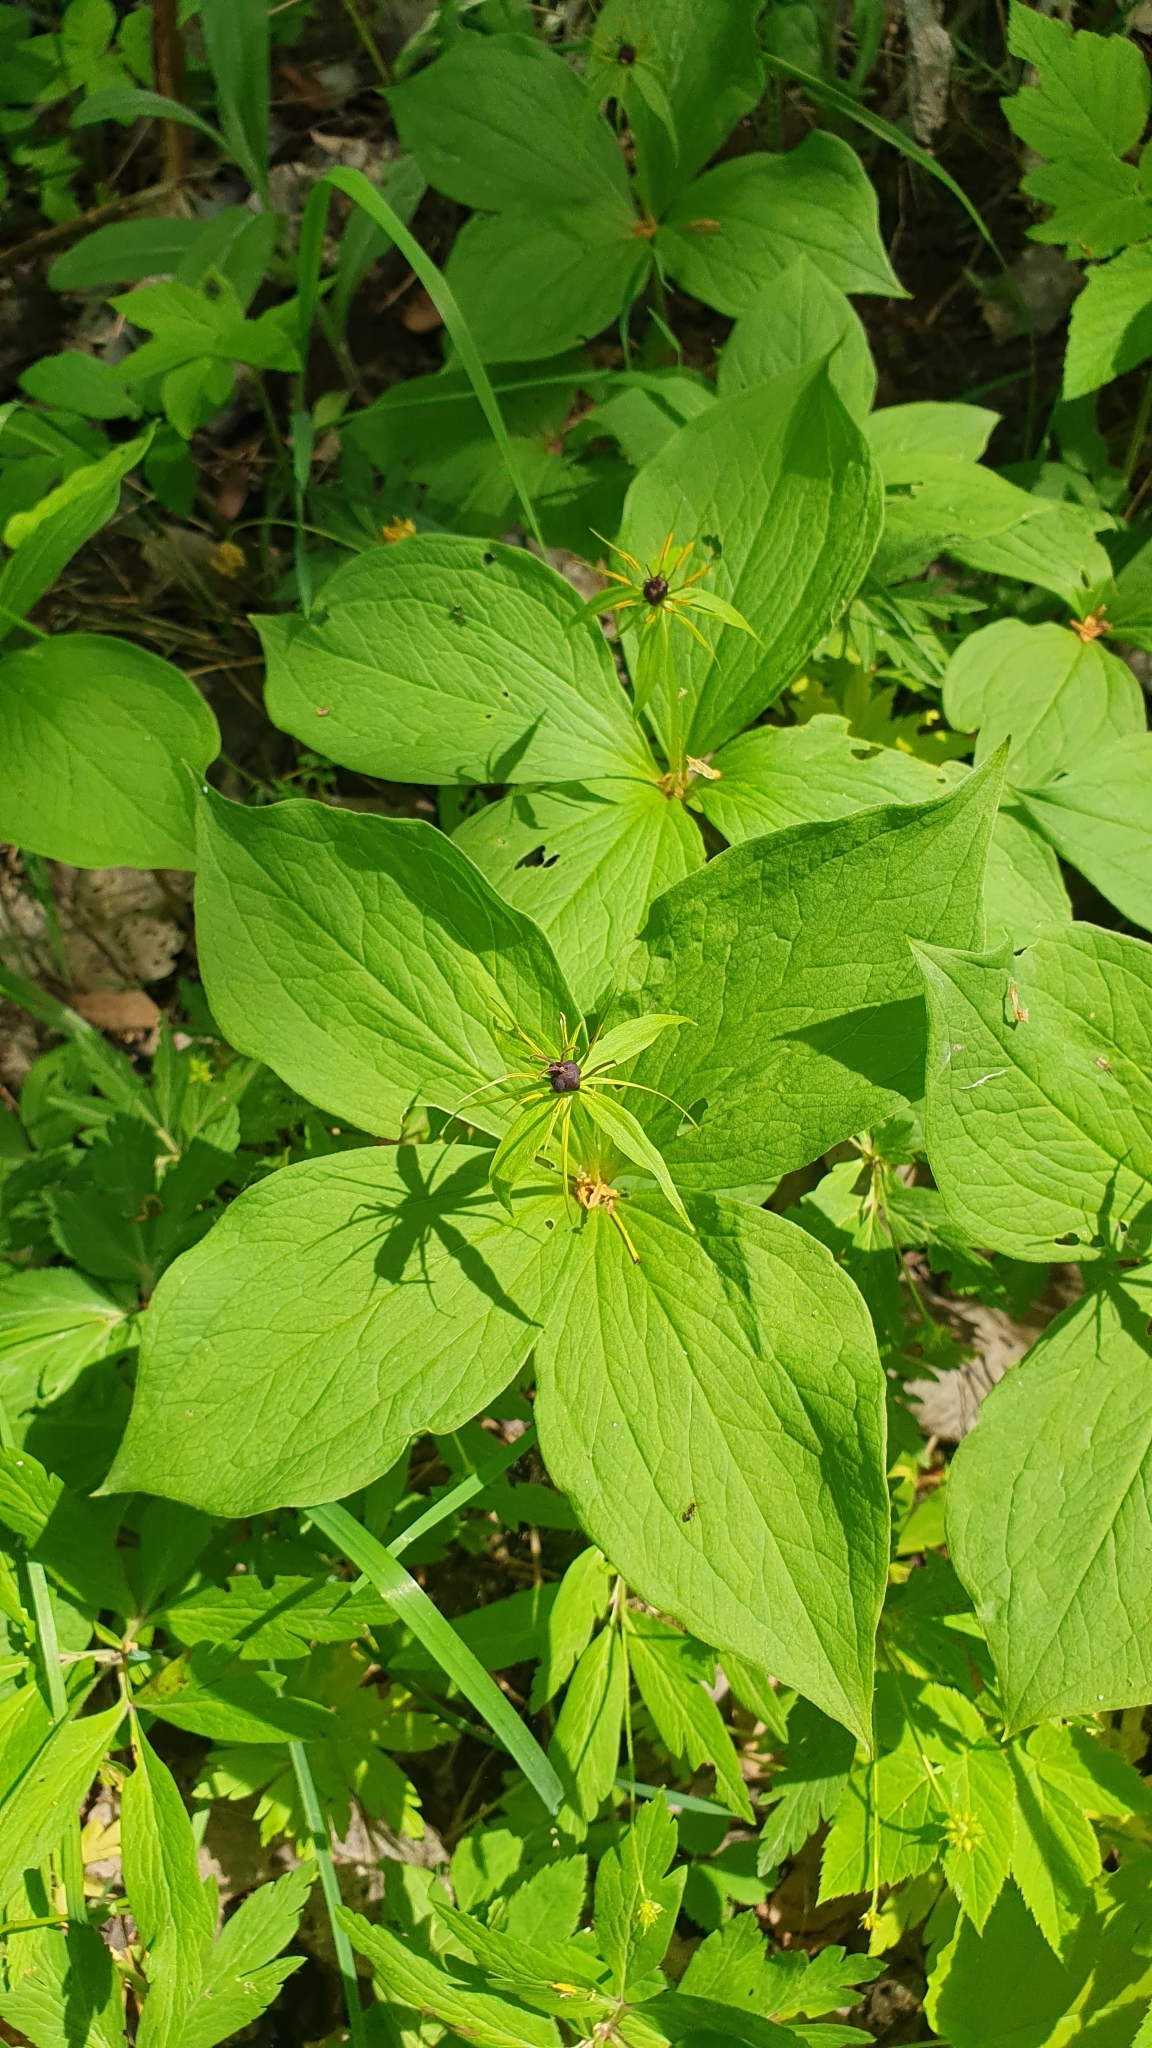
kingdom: Plantae
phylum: Tracheophyta
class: Liliopsida
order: Liliales
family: Melanthiaceae
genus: Paris
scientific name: Paris quadrifolia
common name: Herb-paris
